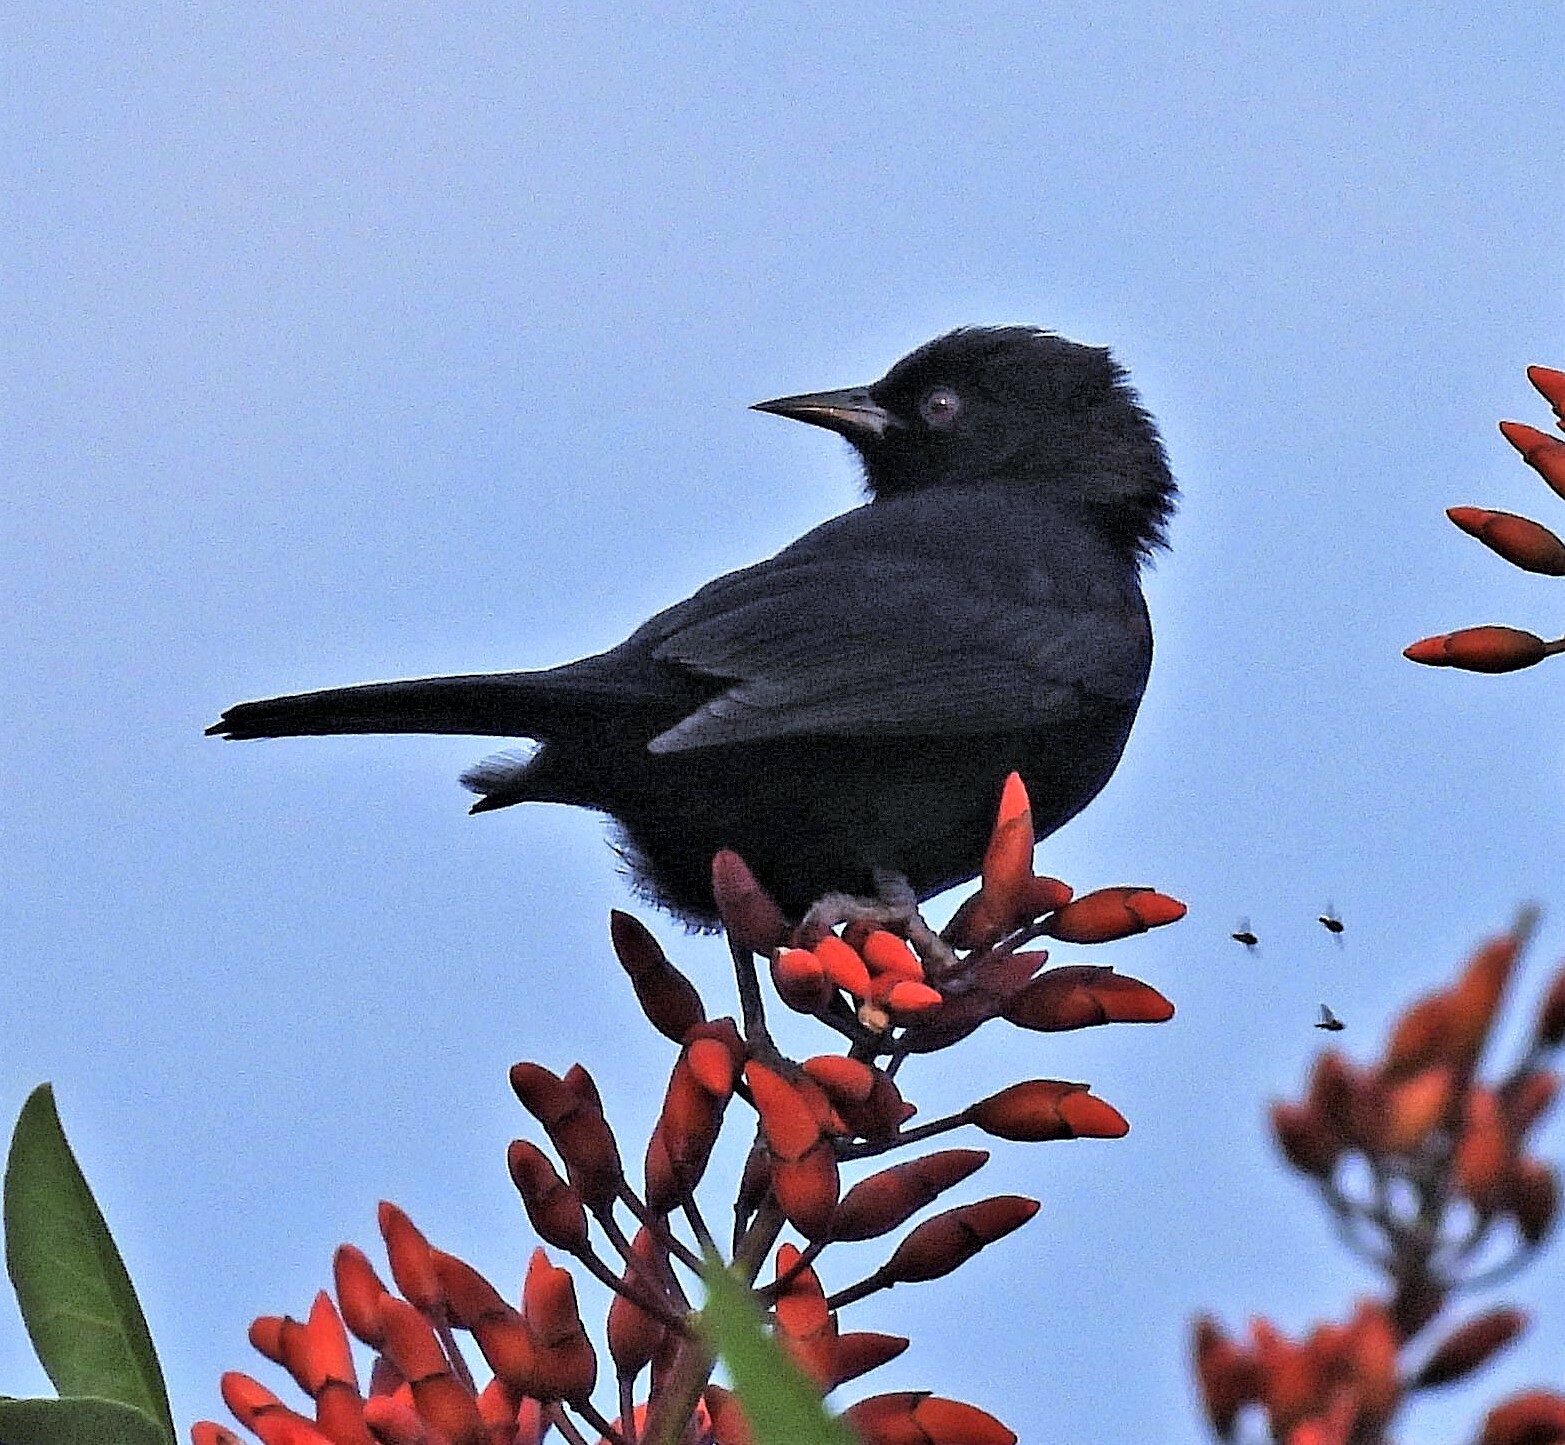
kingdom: Animalia
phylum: Chordata
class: Aves
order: Passeriformes
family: Icteridae
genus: Icterus
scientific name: Icterus cayanensis
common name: Epaulet oriole
